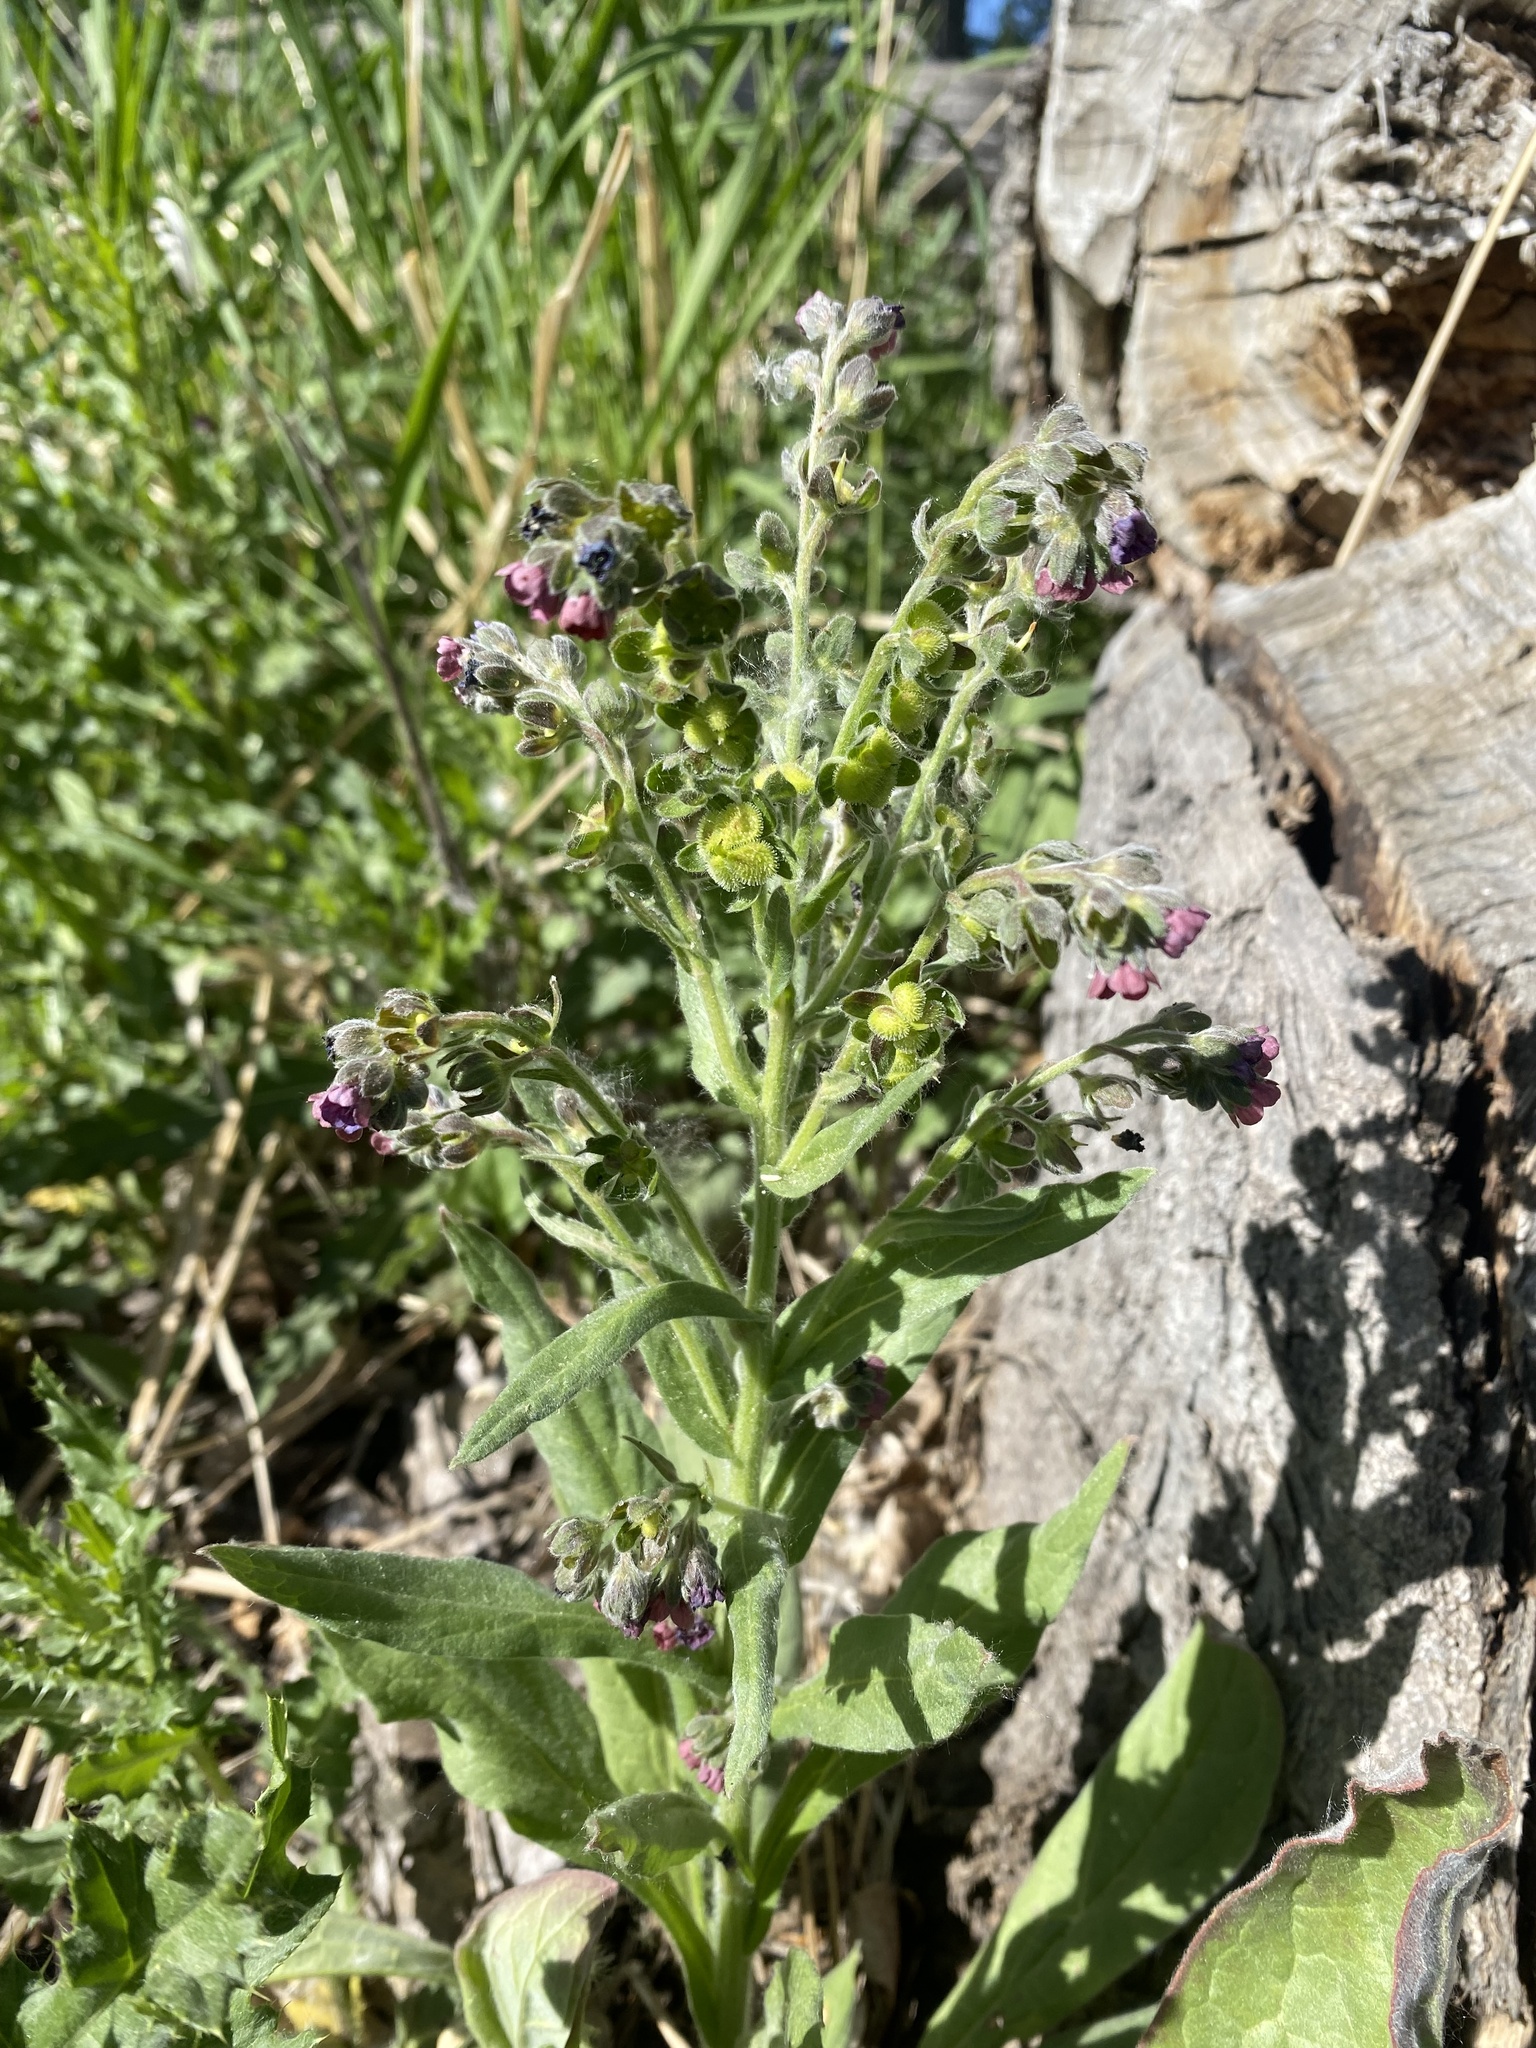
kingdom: Plantae
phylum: Tracheophyta
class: Magnoliopsida
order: Boraginales
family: Boraginaceae
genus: Cynoglossum
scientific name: Cynoglossum officinale
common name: Hound's-tongue
